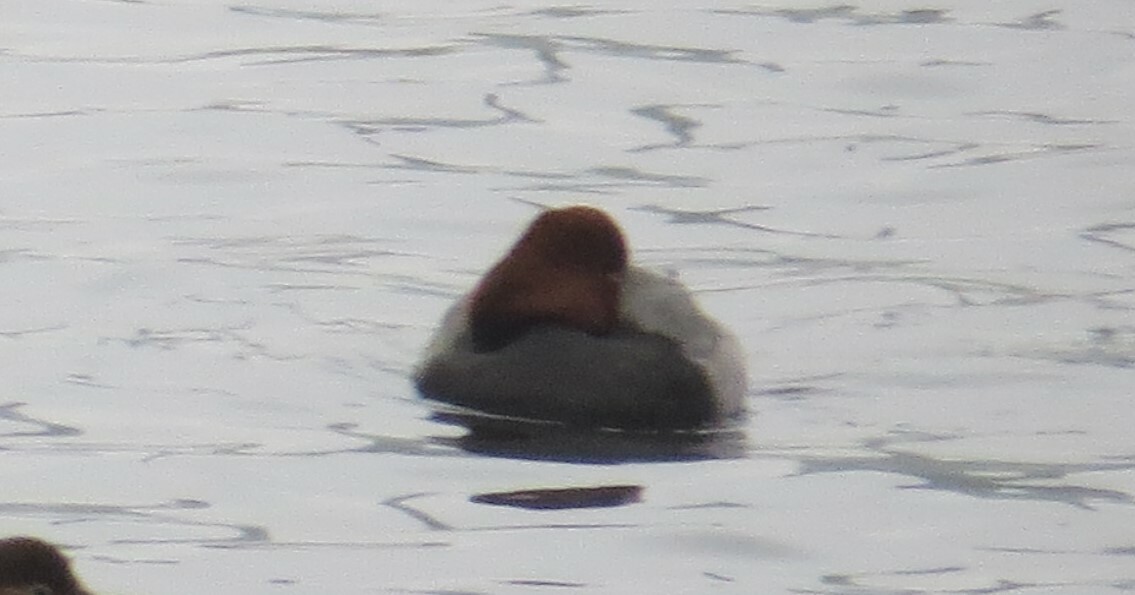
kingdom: Animalia
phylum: Chordata
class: Aves
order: Anseriformes
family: Anatidae
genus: Aythya
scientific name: Aythya americana
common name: Redhead
